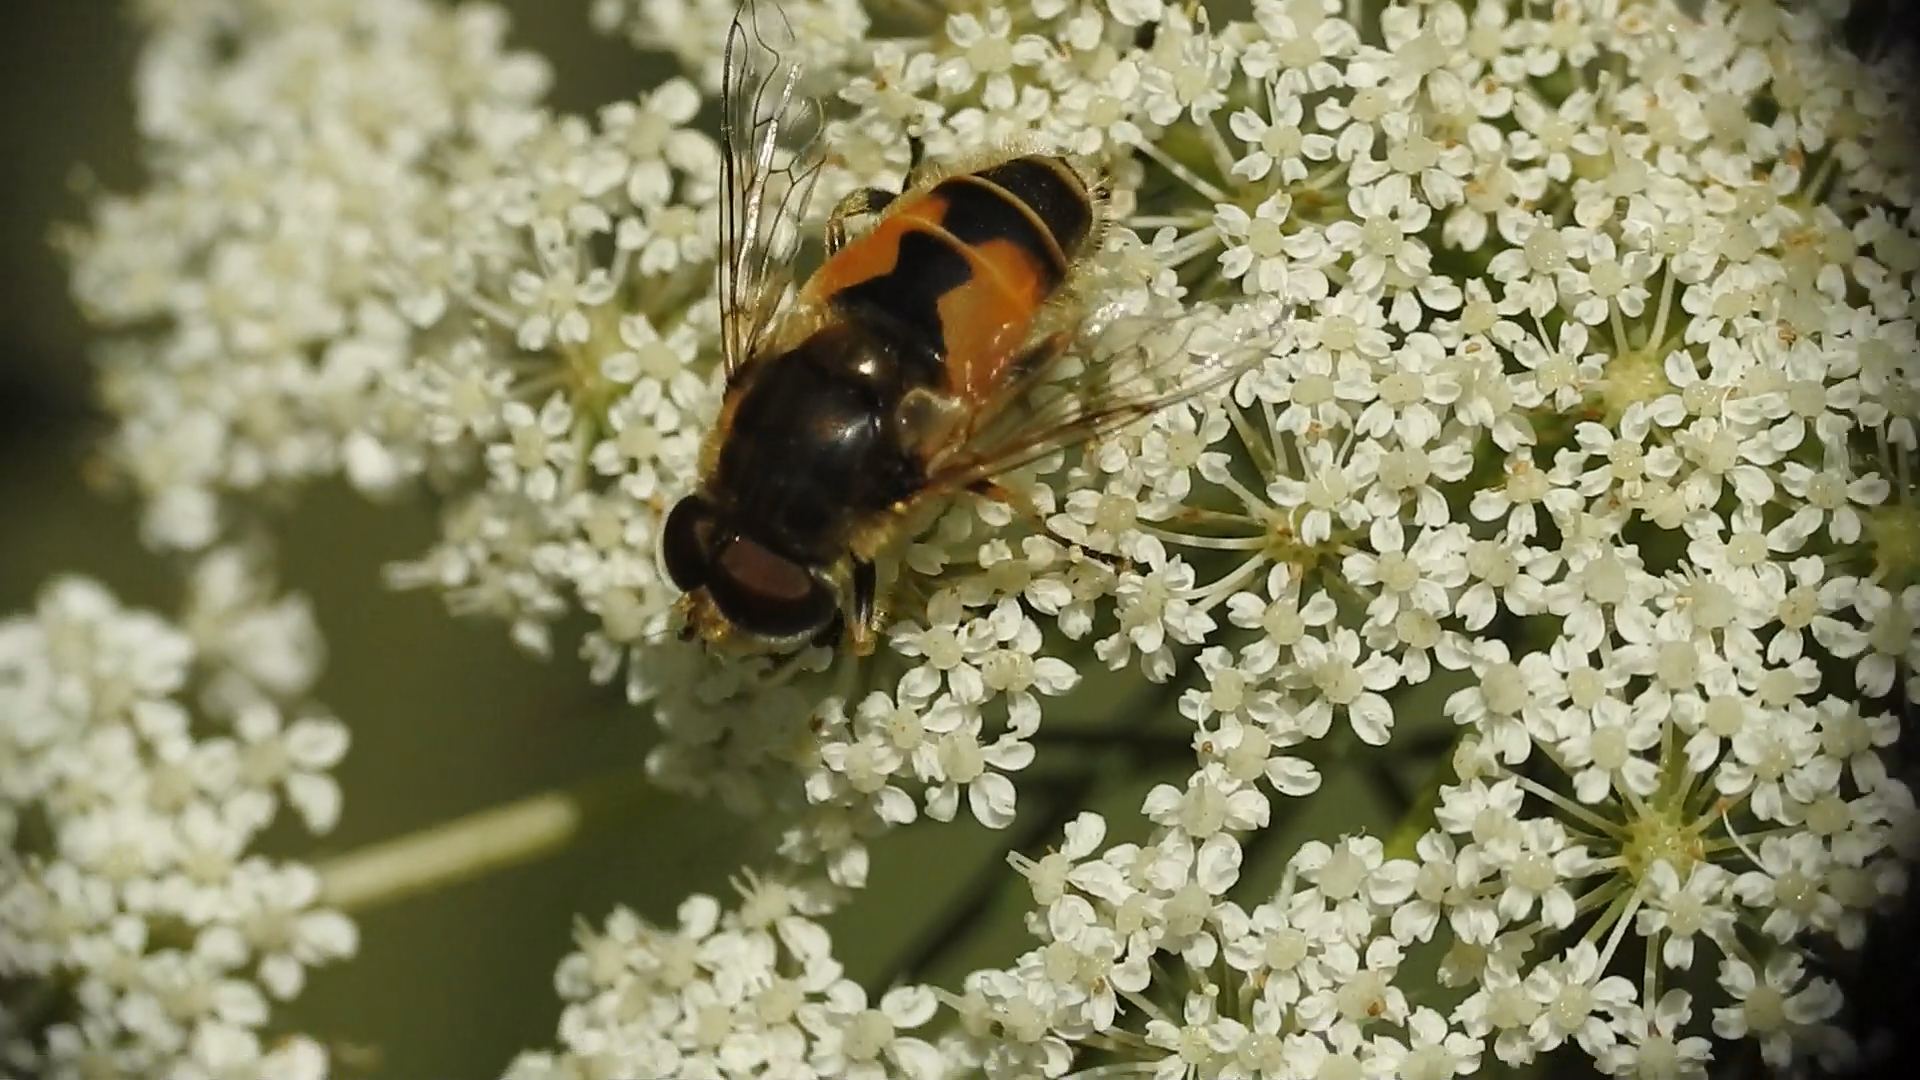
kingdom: Animalia
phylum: Arthropoda
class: Insecta
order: Diptera
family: Syrphidae
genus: Eristalis
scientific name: Eristalis arbustorum
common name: Hover fly
